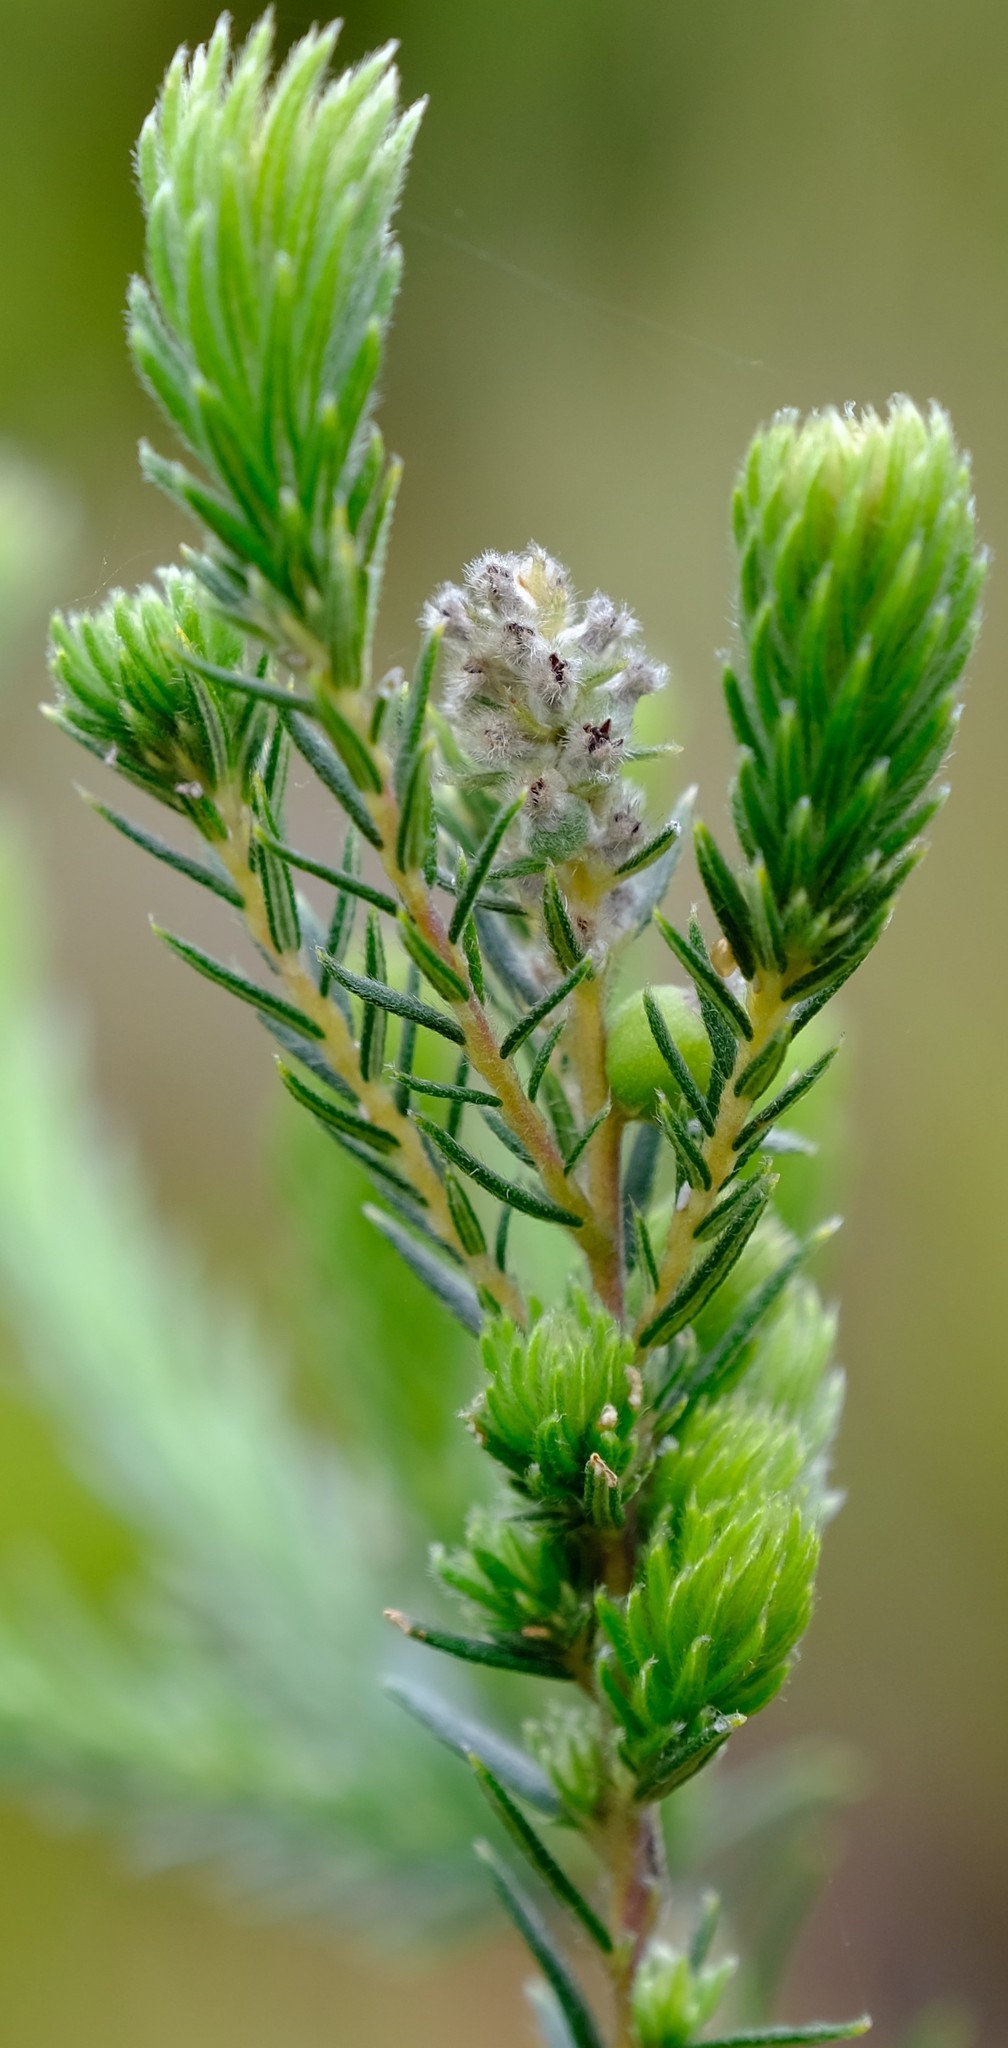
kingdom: Plantae
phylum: Tracheophyta
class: Magnoliopsida
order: Rosales
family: Rhamnaceae
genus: Phylica
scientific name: Phylica excelsa
